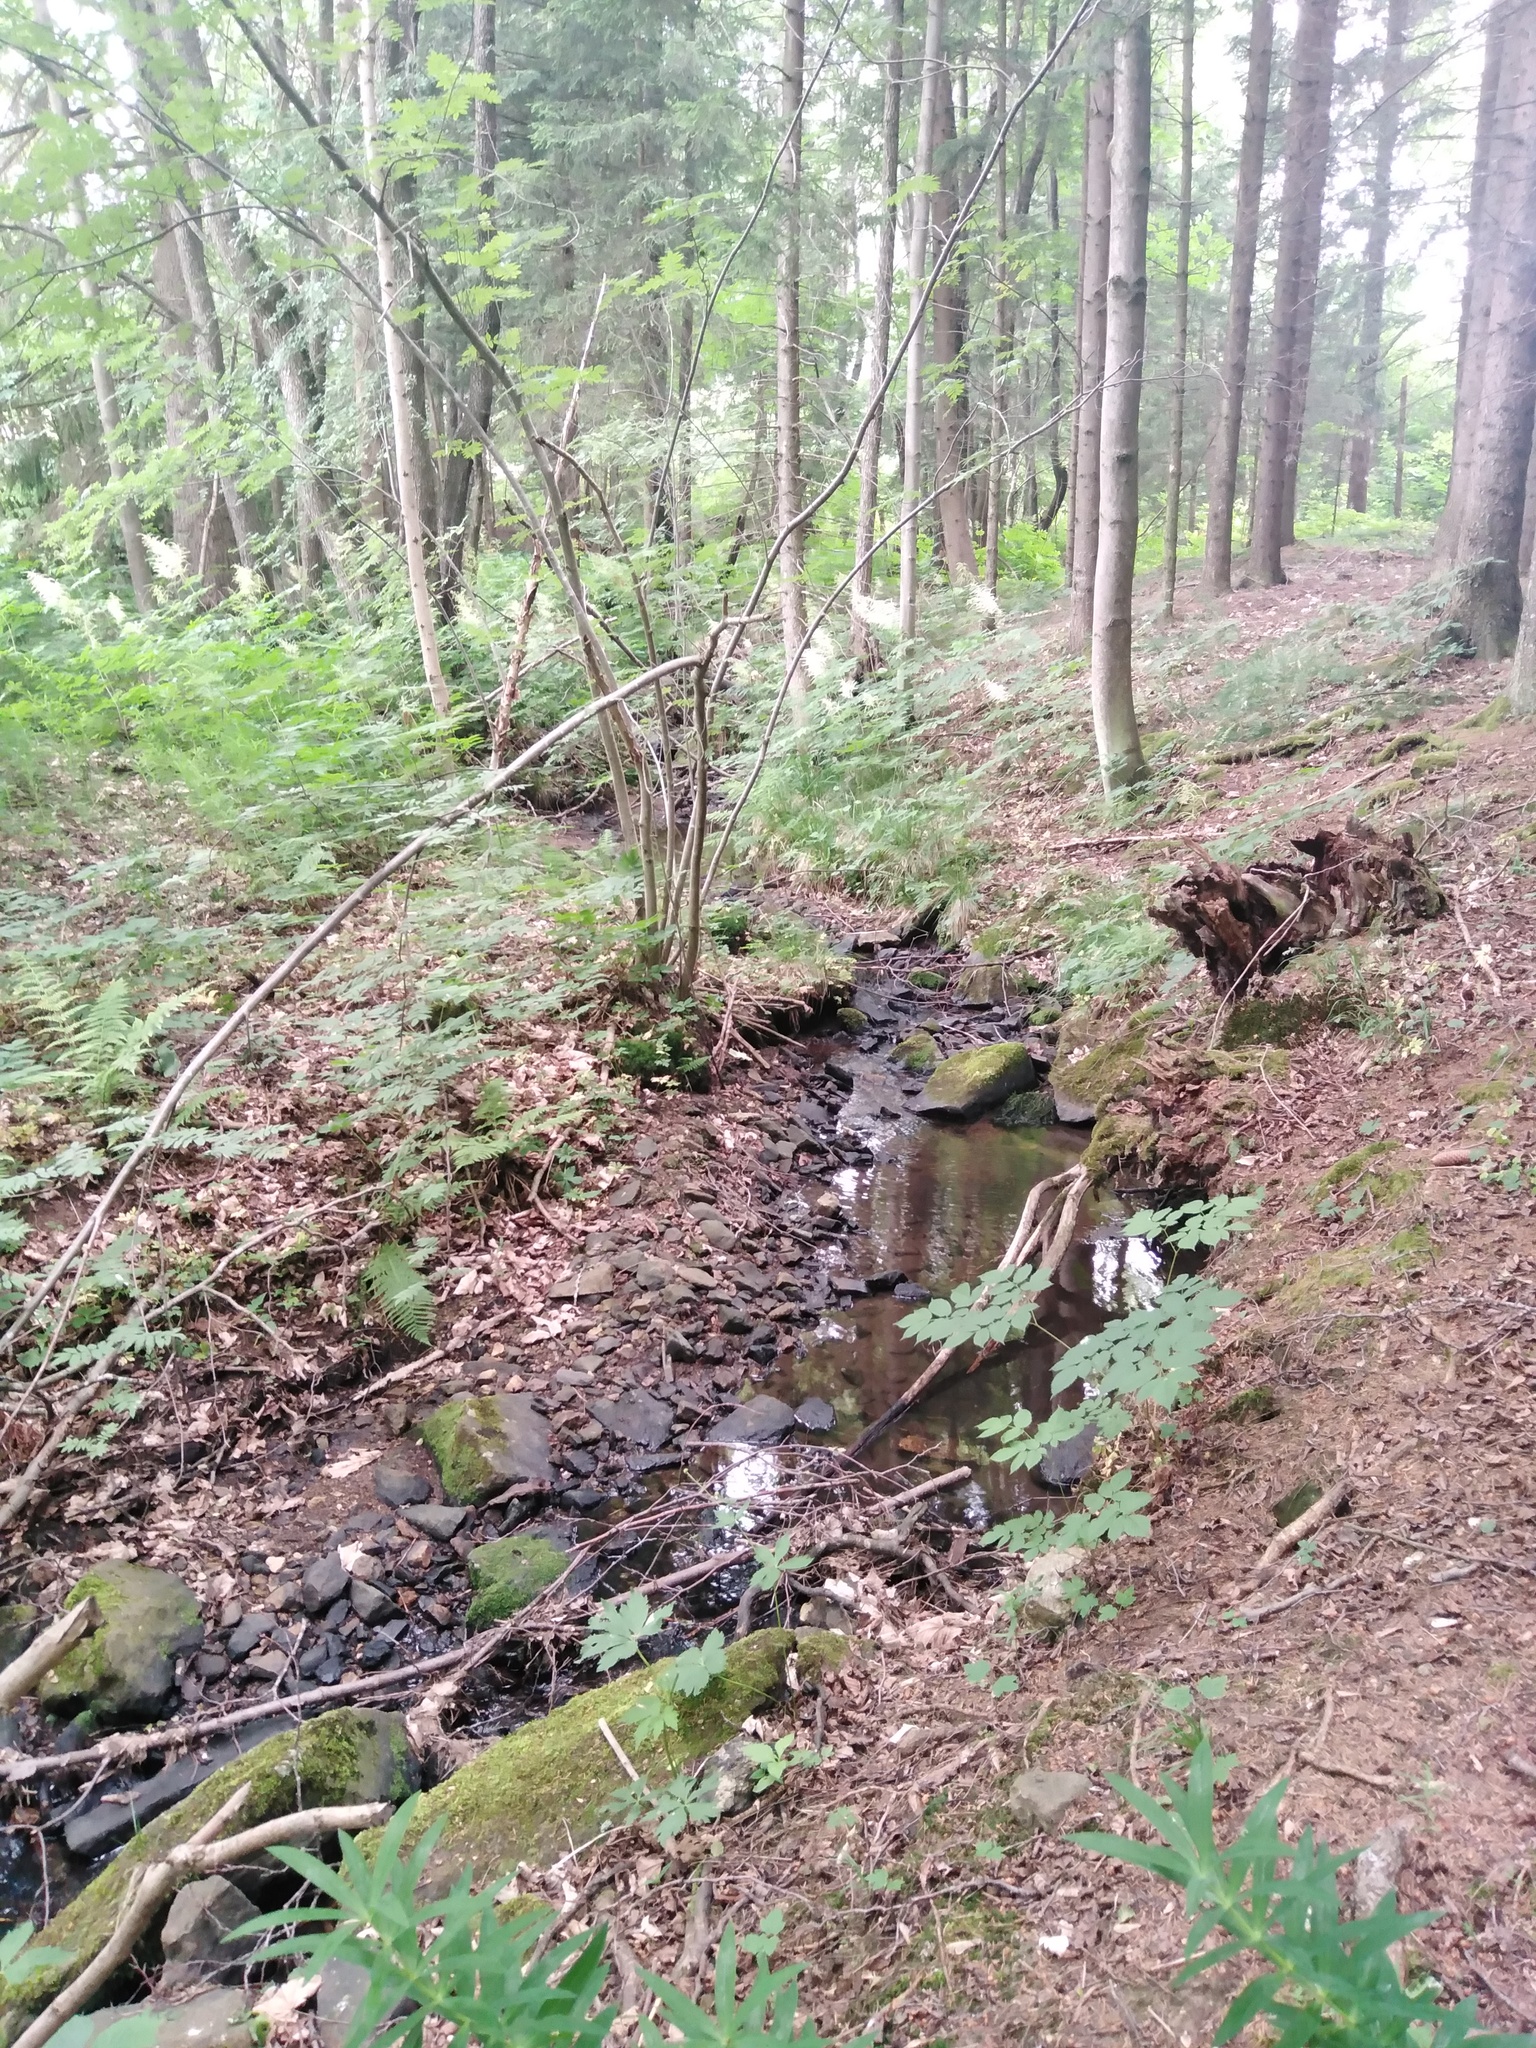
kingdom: Animalia
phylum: Arthropoda
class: Malacostraca
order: Decapoda
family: Astacidae
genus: Austropotamobius
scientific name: Austropotamobius torrentium
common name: Stone crayfish
